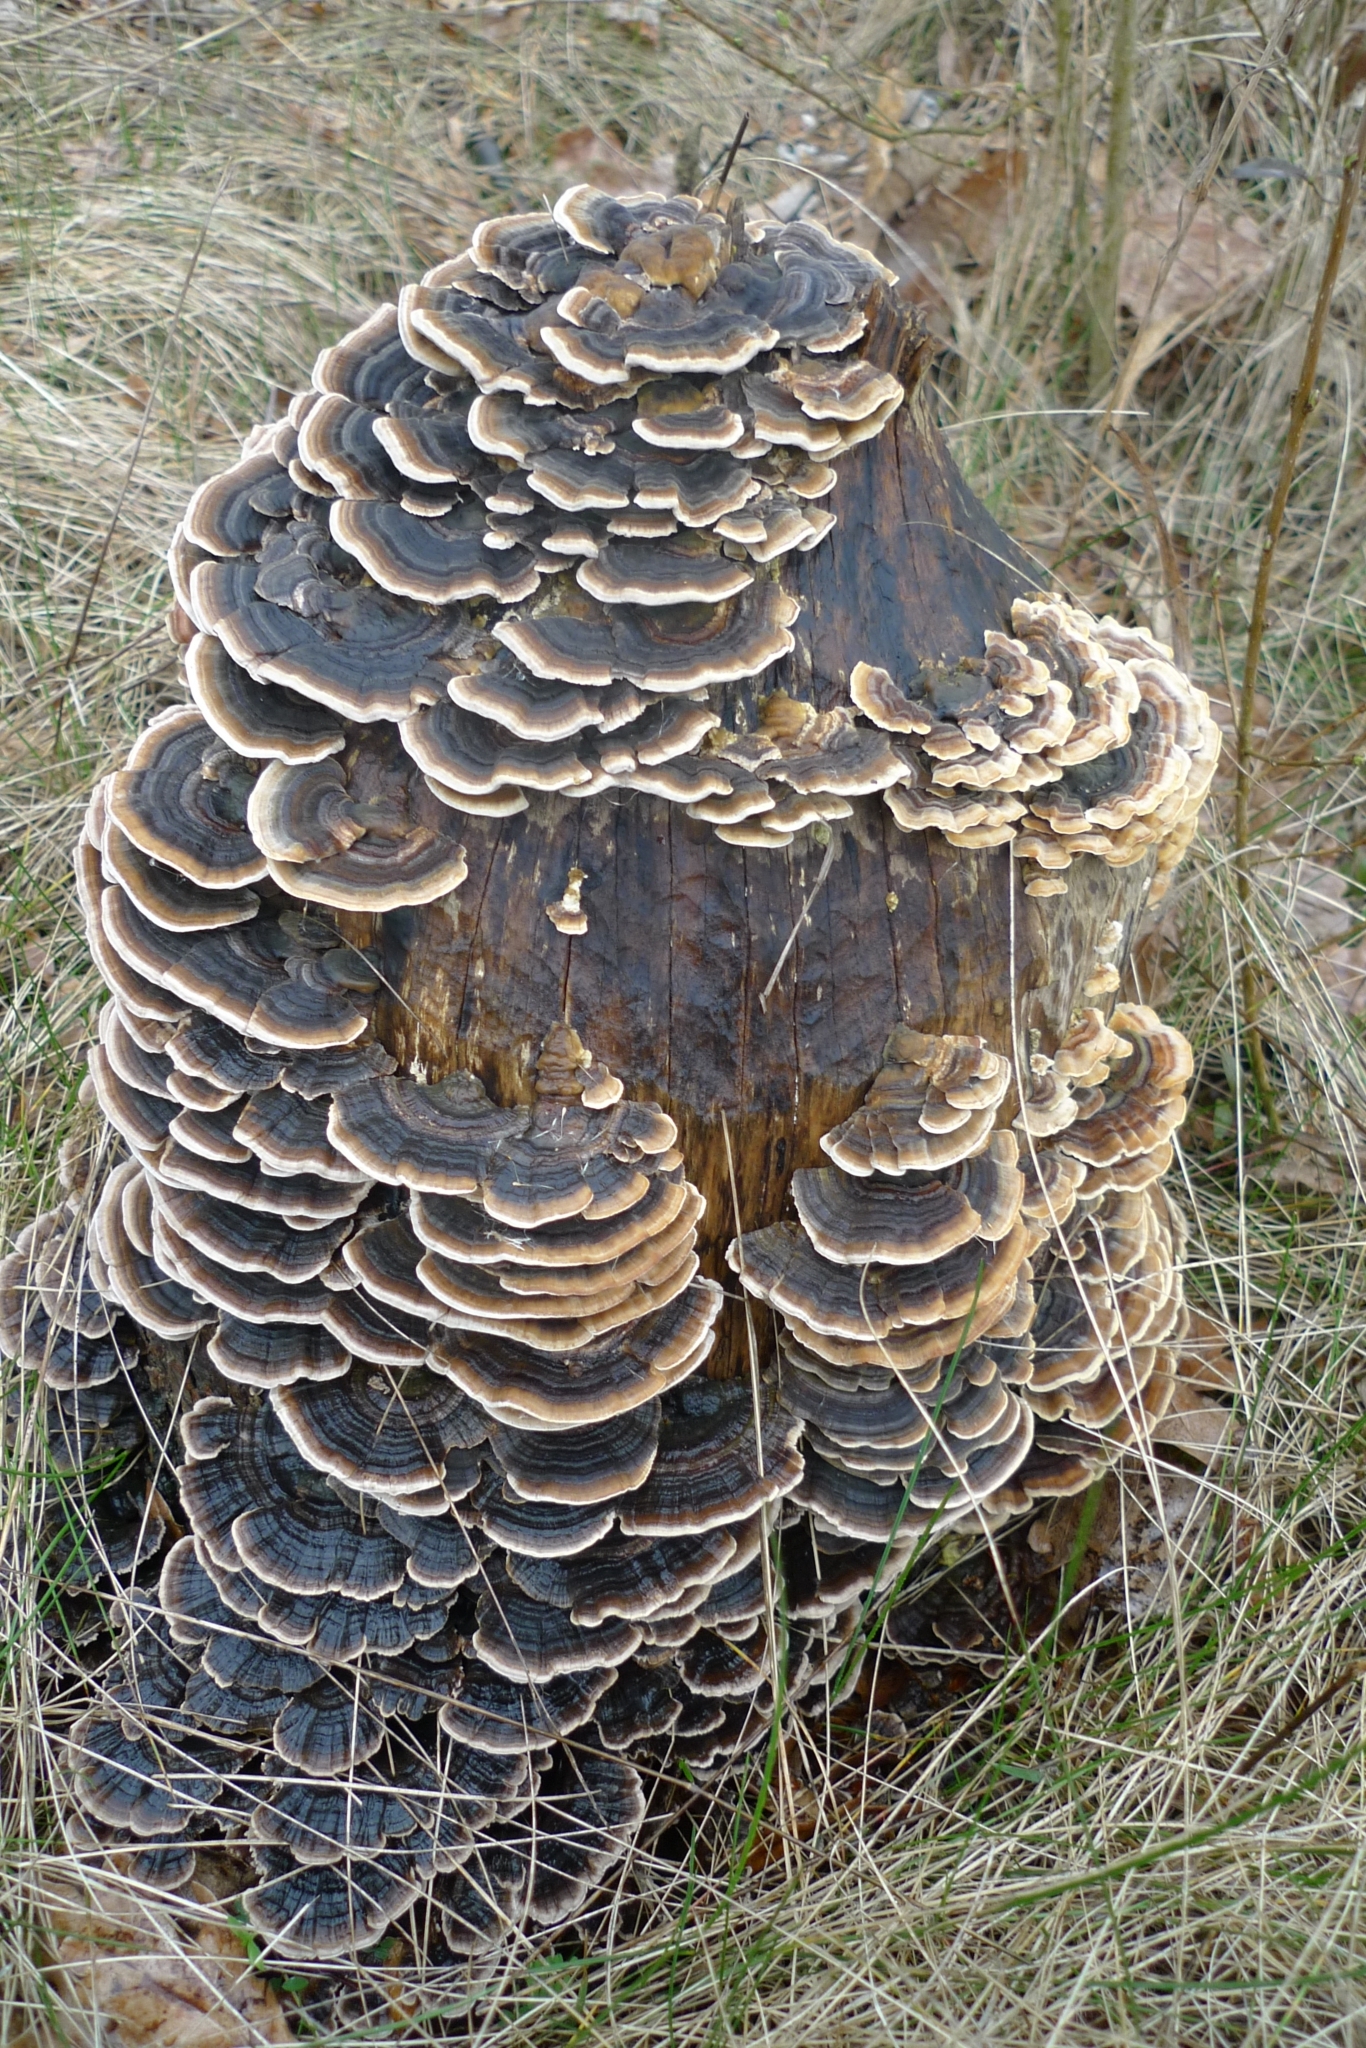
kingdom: Fungi
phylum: Basidiomycota
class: Agaricomycetes
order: Polyporales
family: Polyporaceae
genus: Trametes
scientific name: Trametes versicolor
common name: Turkeytail
